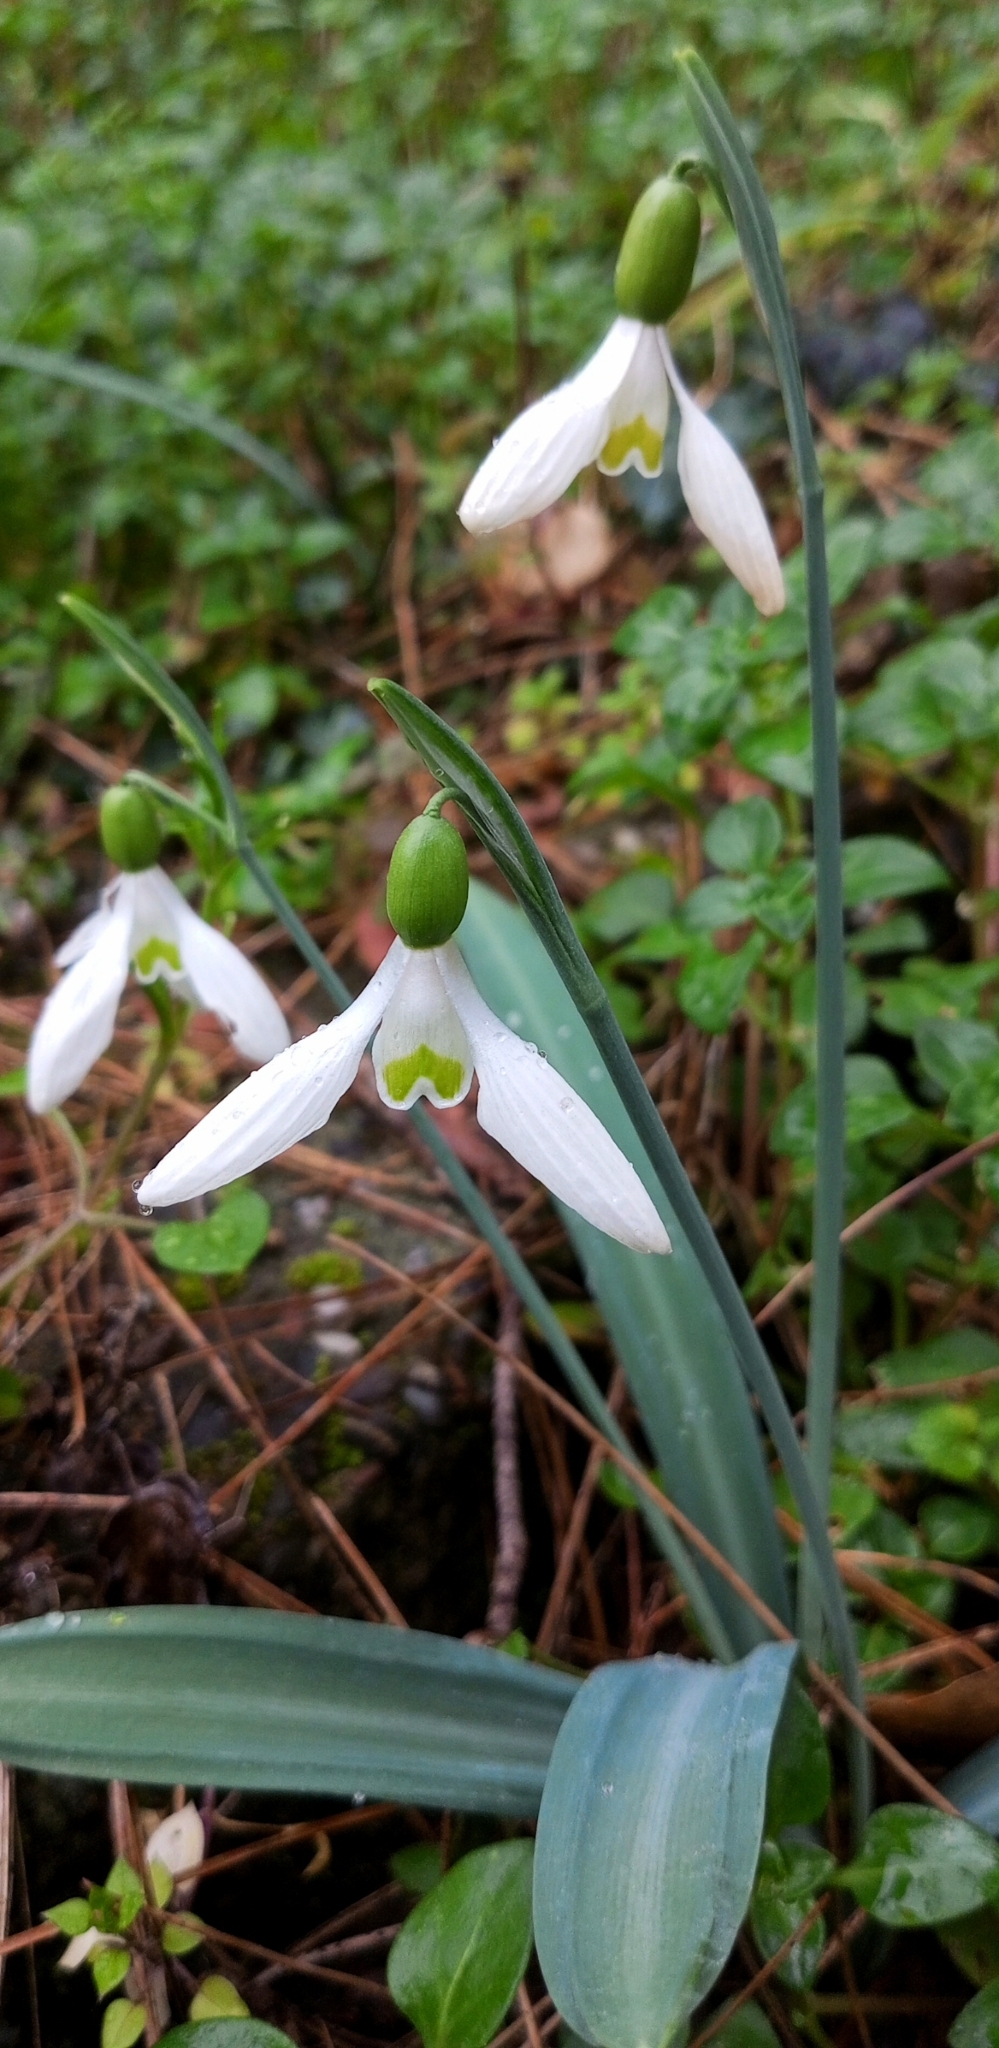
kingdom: Plantae
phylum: Tracheophyta
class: Liliopsida
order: Asparagales
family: Amaryllidaceae
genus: Galanthus
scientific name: Galanthus plicatus
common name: Pleated snowdrop
